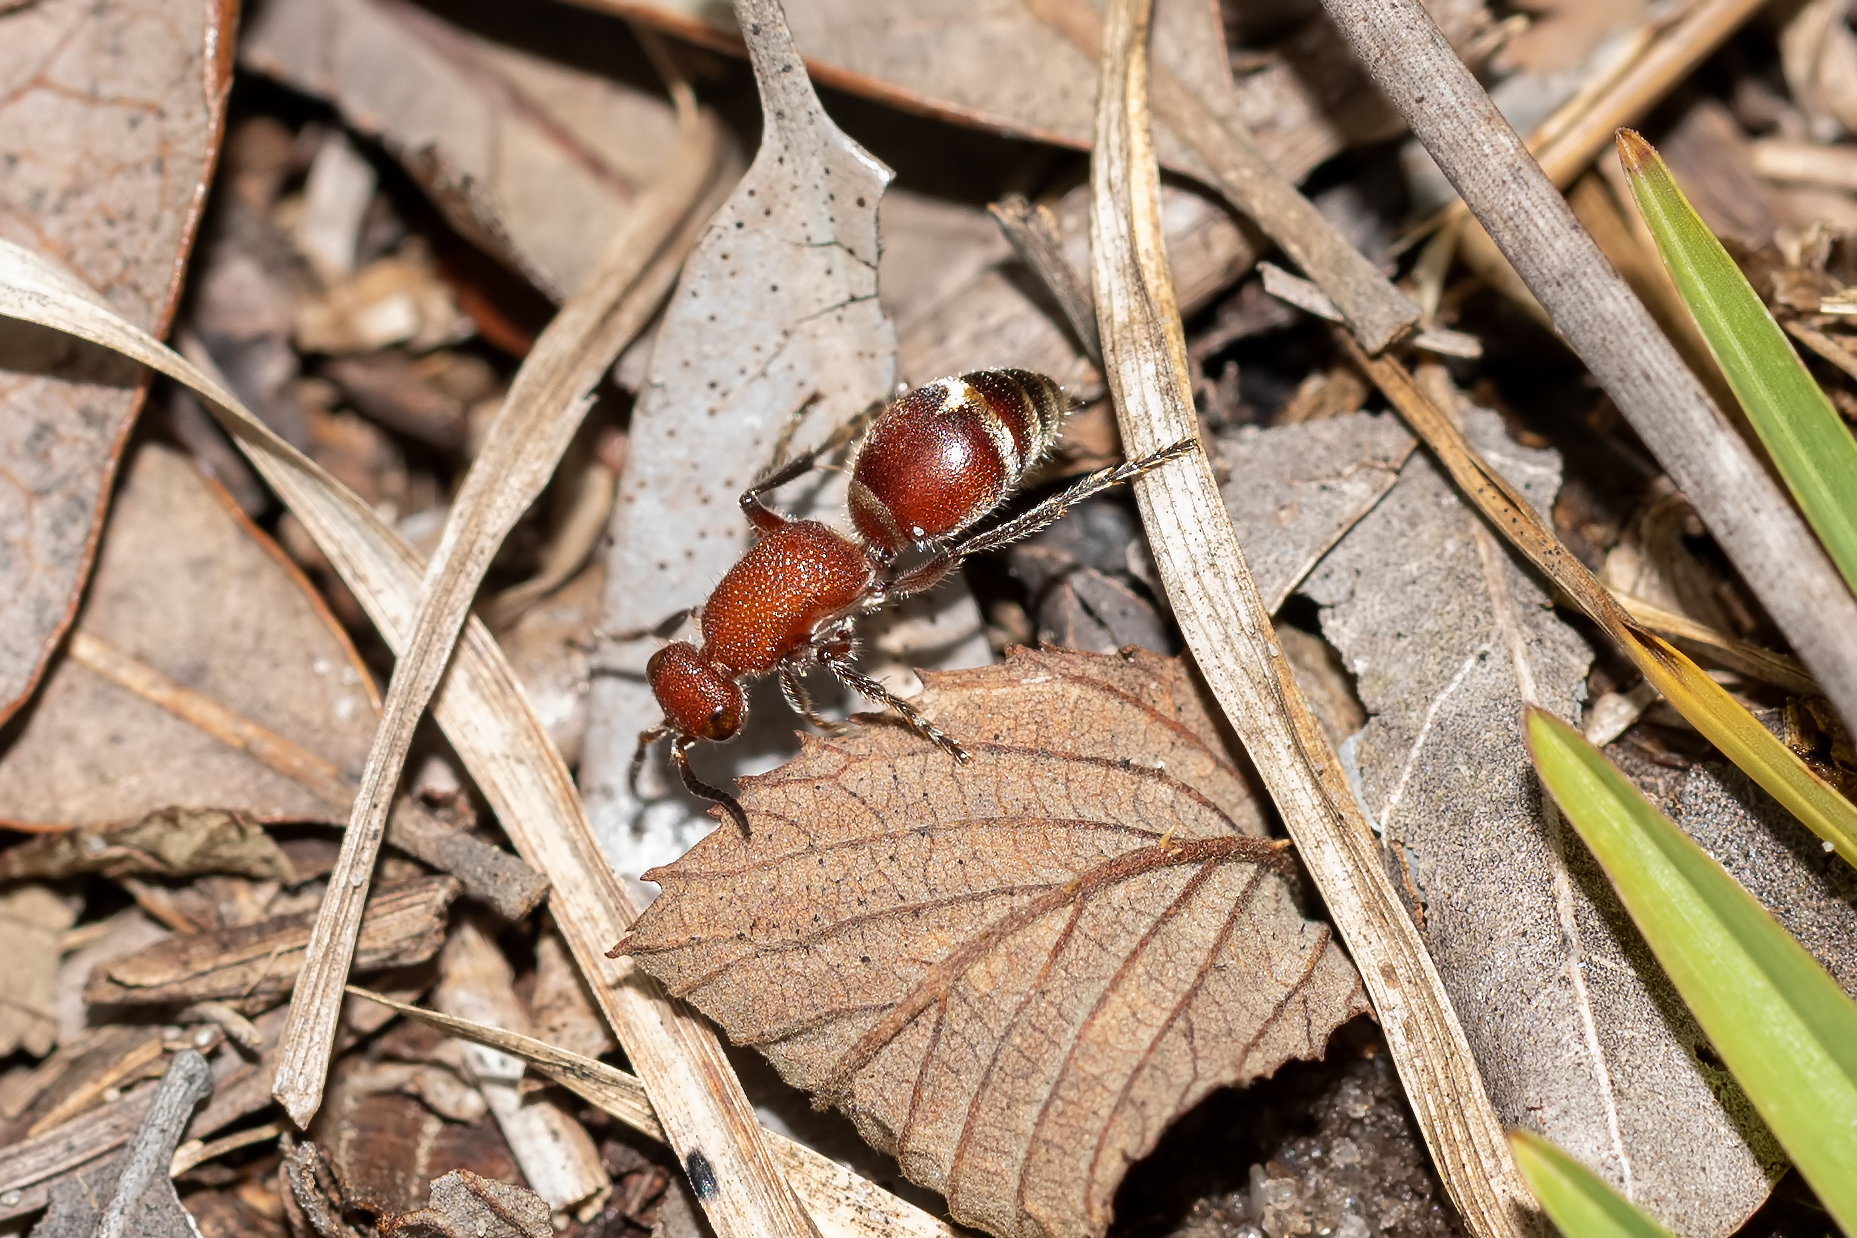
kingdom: Animalia
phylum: Arthropoda
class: Insecta
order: Hymenoptera
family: Mutillidae
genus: Timulla
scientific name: Timulla
